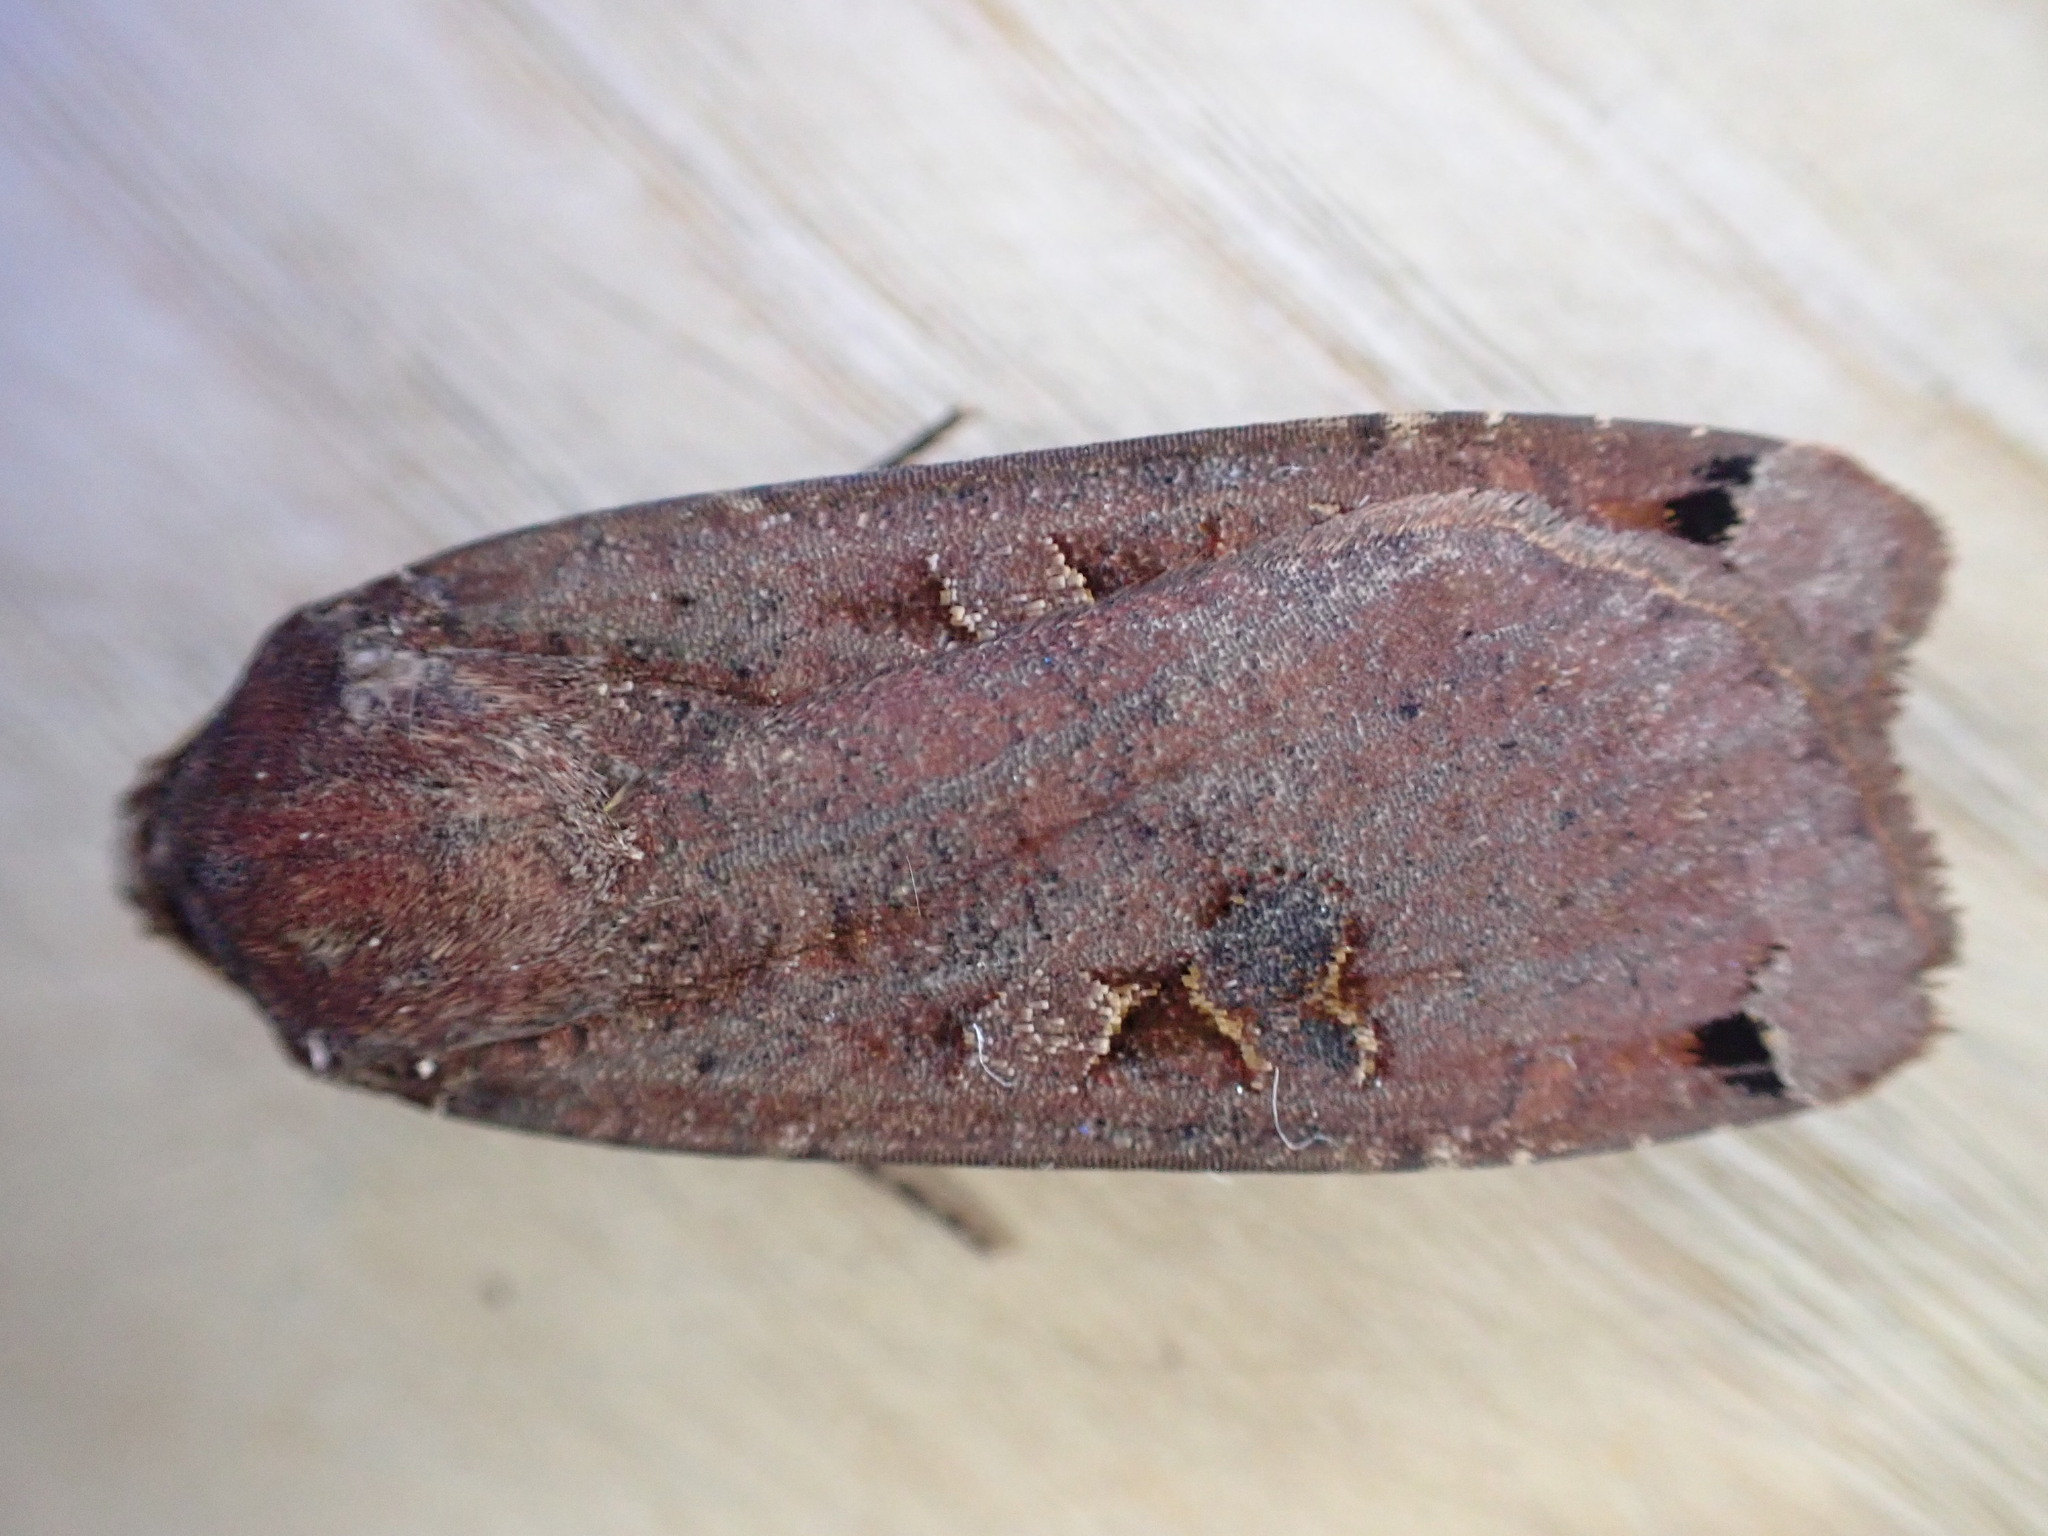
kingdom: Animalia
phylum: Arthropoda
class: Insecta
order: Lepidoptera
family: Noctuidae
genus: Noctua
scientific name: Noctua pronuba
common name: Large yellow underwing
